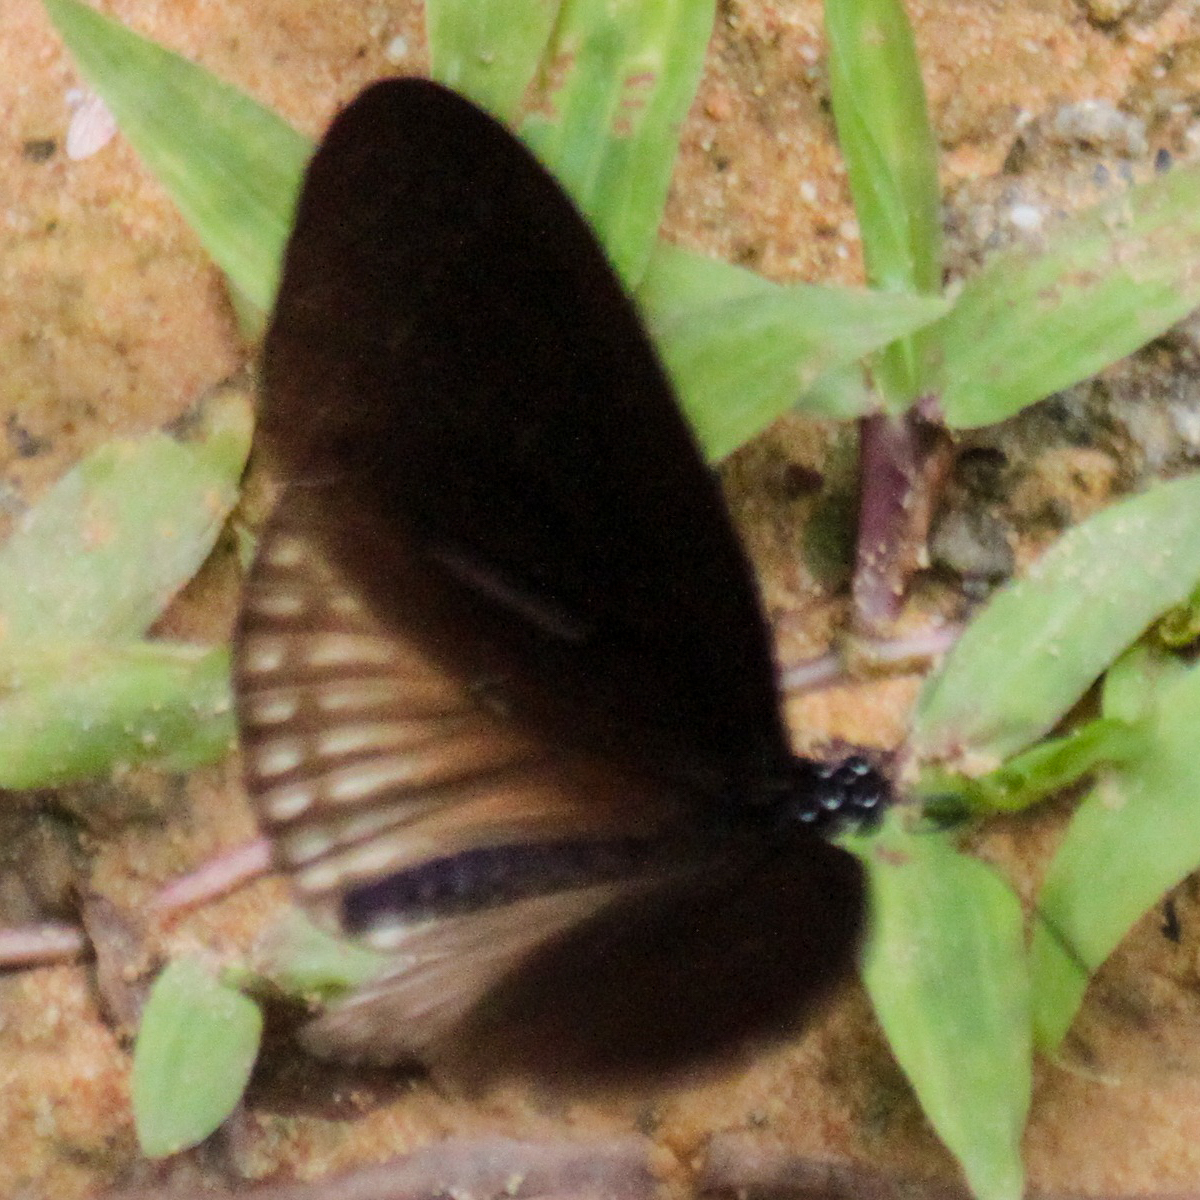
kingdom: Animalia
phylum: Arthropoda
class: Insecta
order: Lepidoptera
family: Nymphalidae
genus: Euploea
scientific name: Euploea eyndhovii
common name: Striped black crow butterfly
